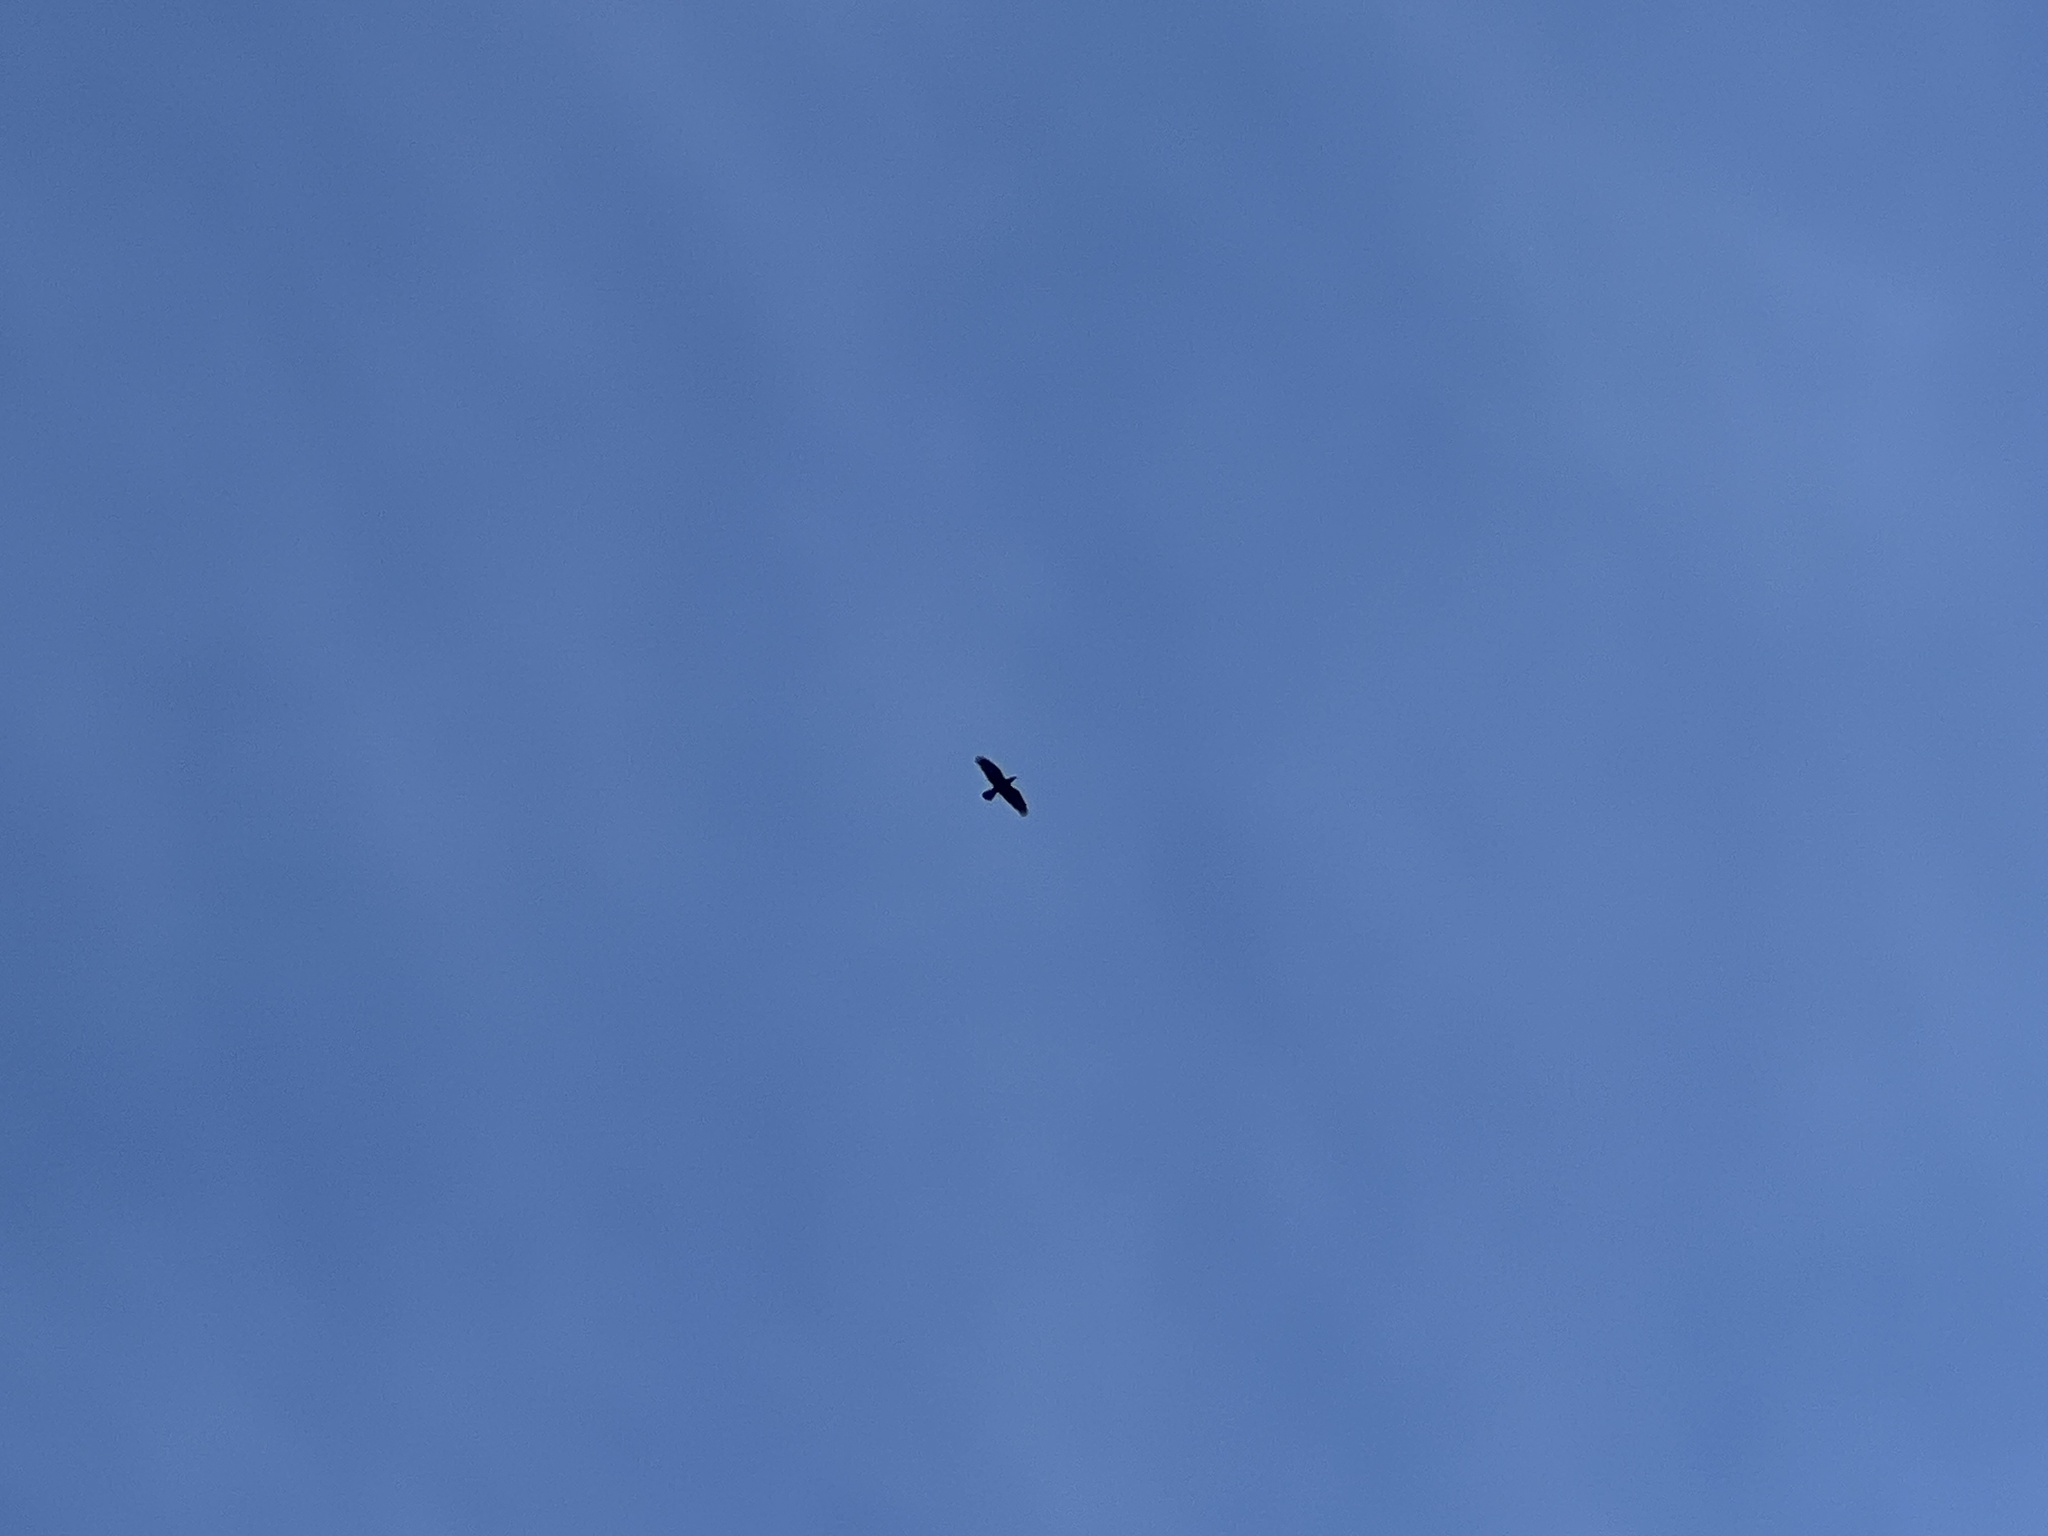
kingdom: Animalia
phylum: Chordata
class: Aves
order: Passeriformes
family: Corvidae
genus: Corvus
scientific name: Corvus corax
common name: Common raven
